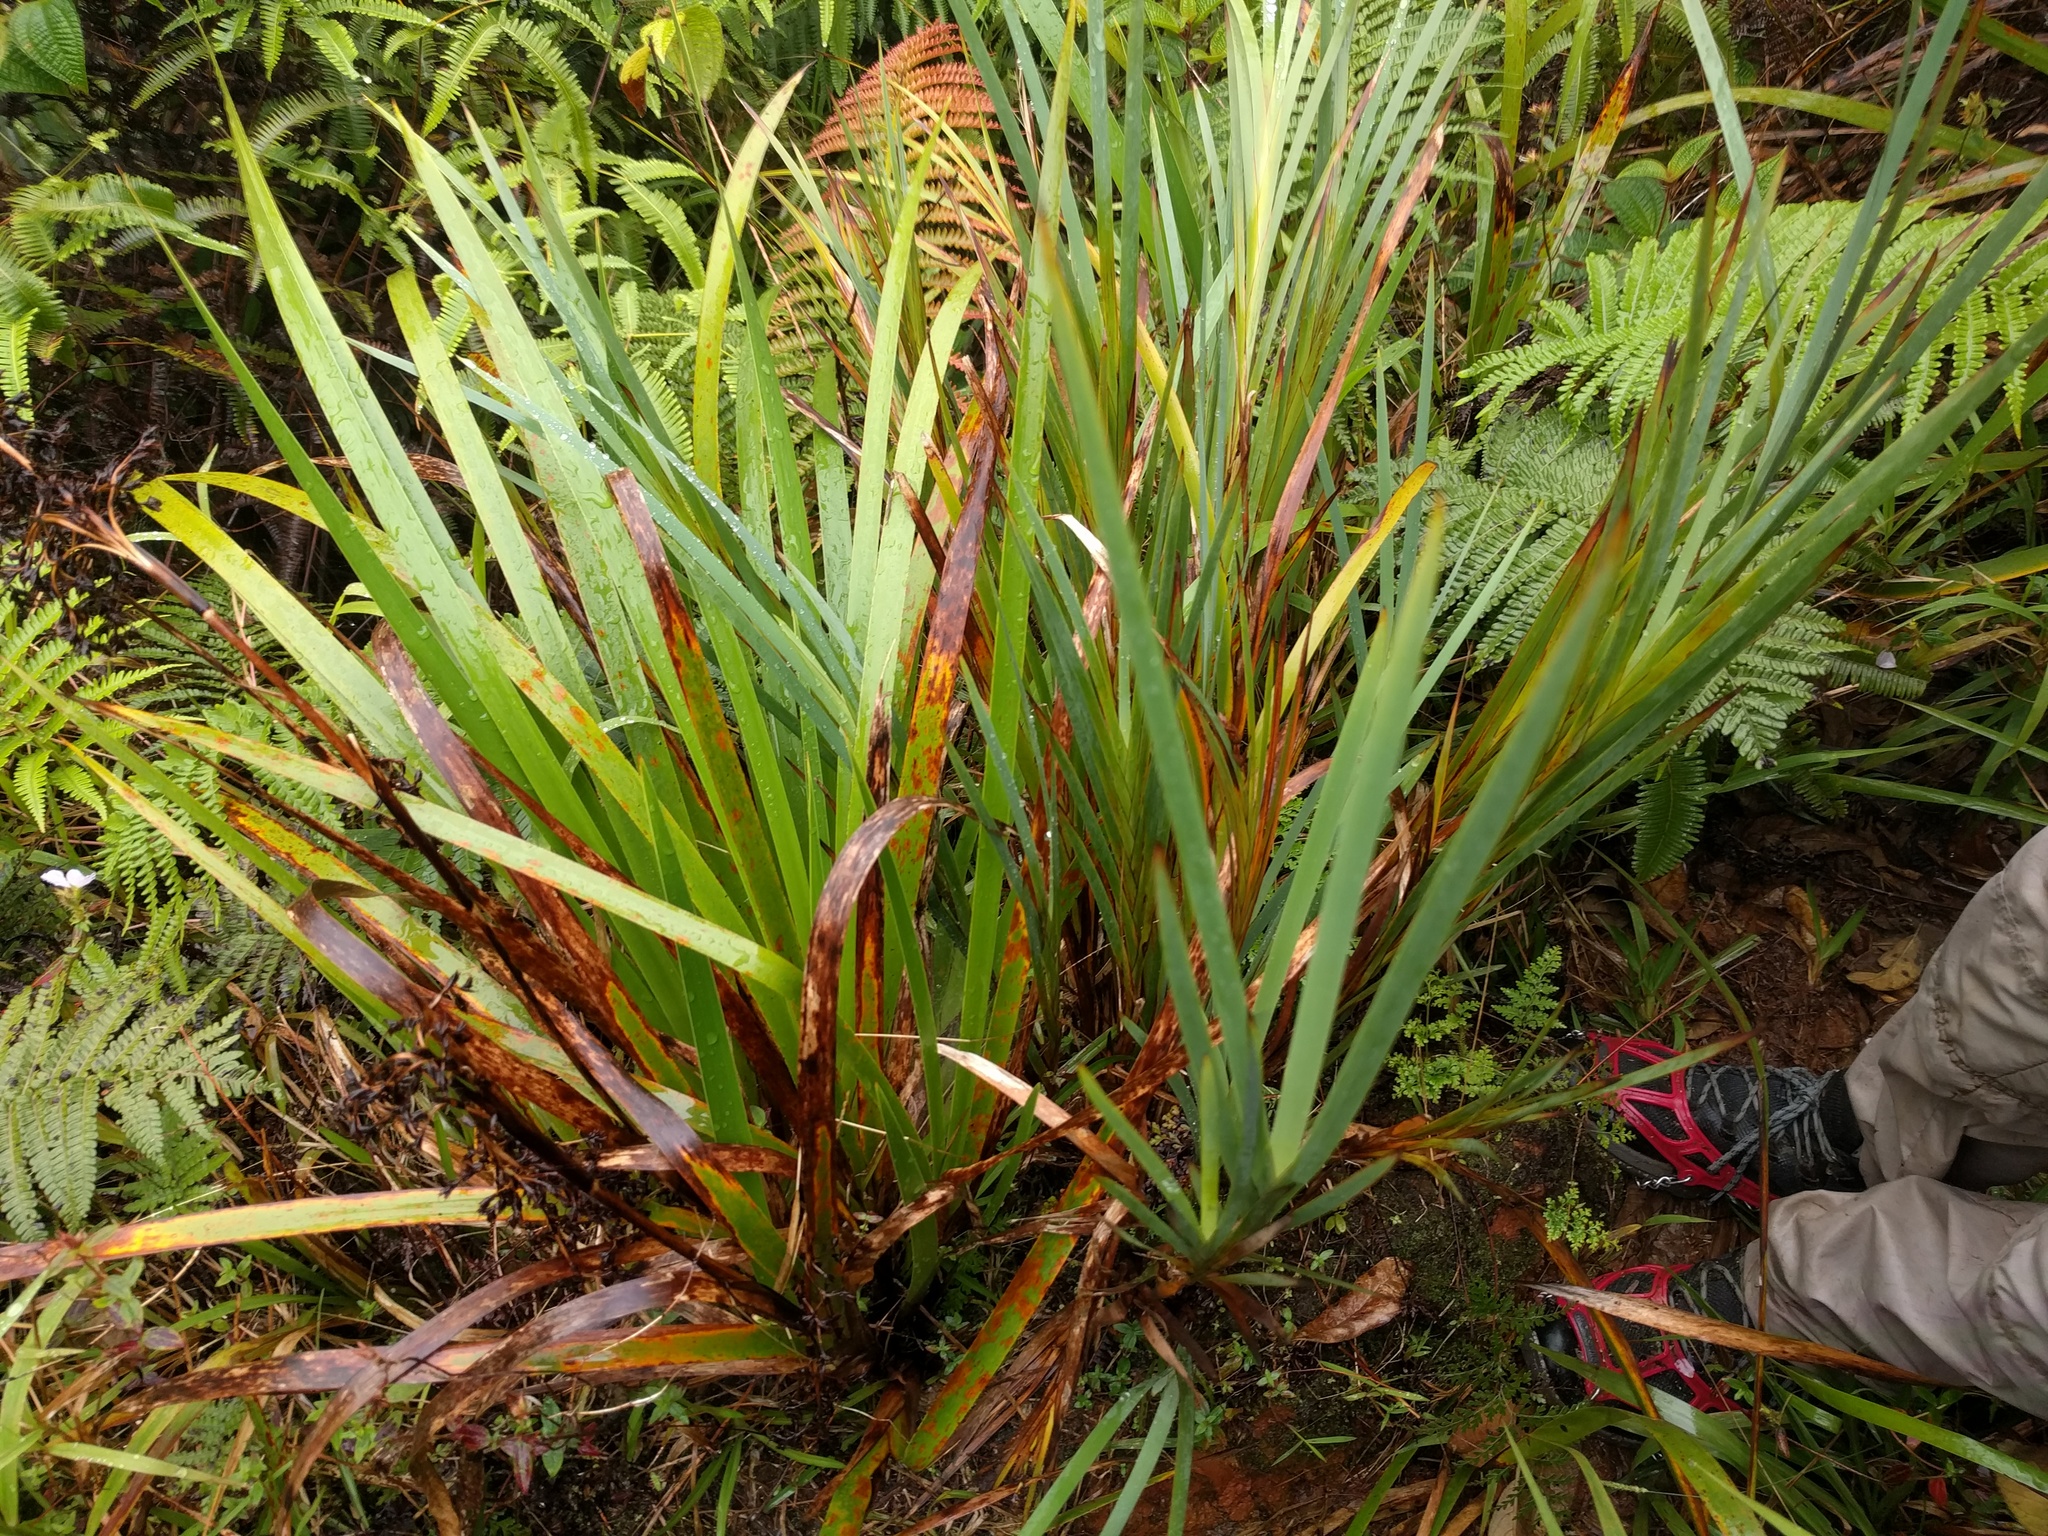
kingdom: Plantae
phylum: Tracheophyta
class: Liliopsida
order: Poales
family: Cyperaceae
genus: Machaerina
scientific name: Machaerina mariscoides
